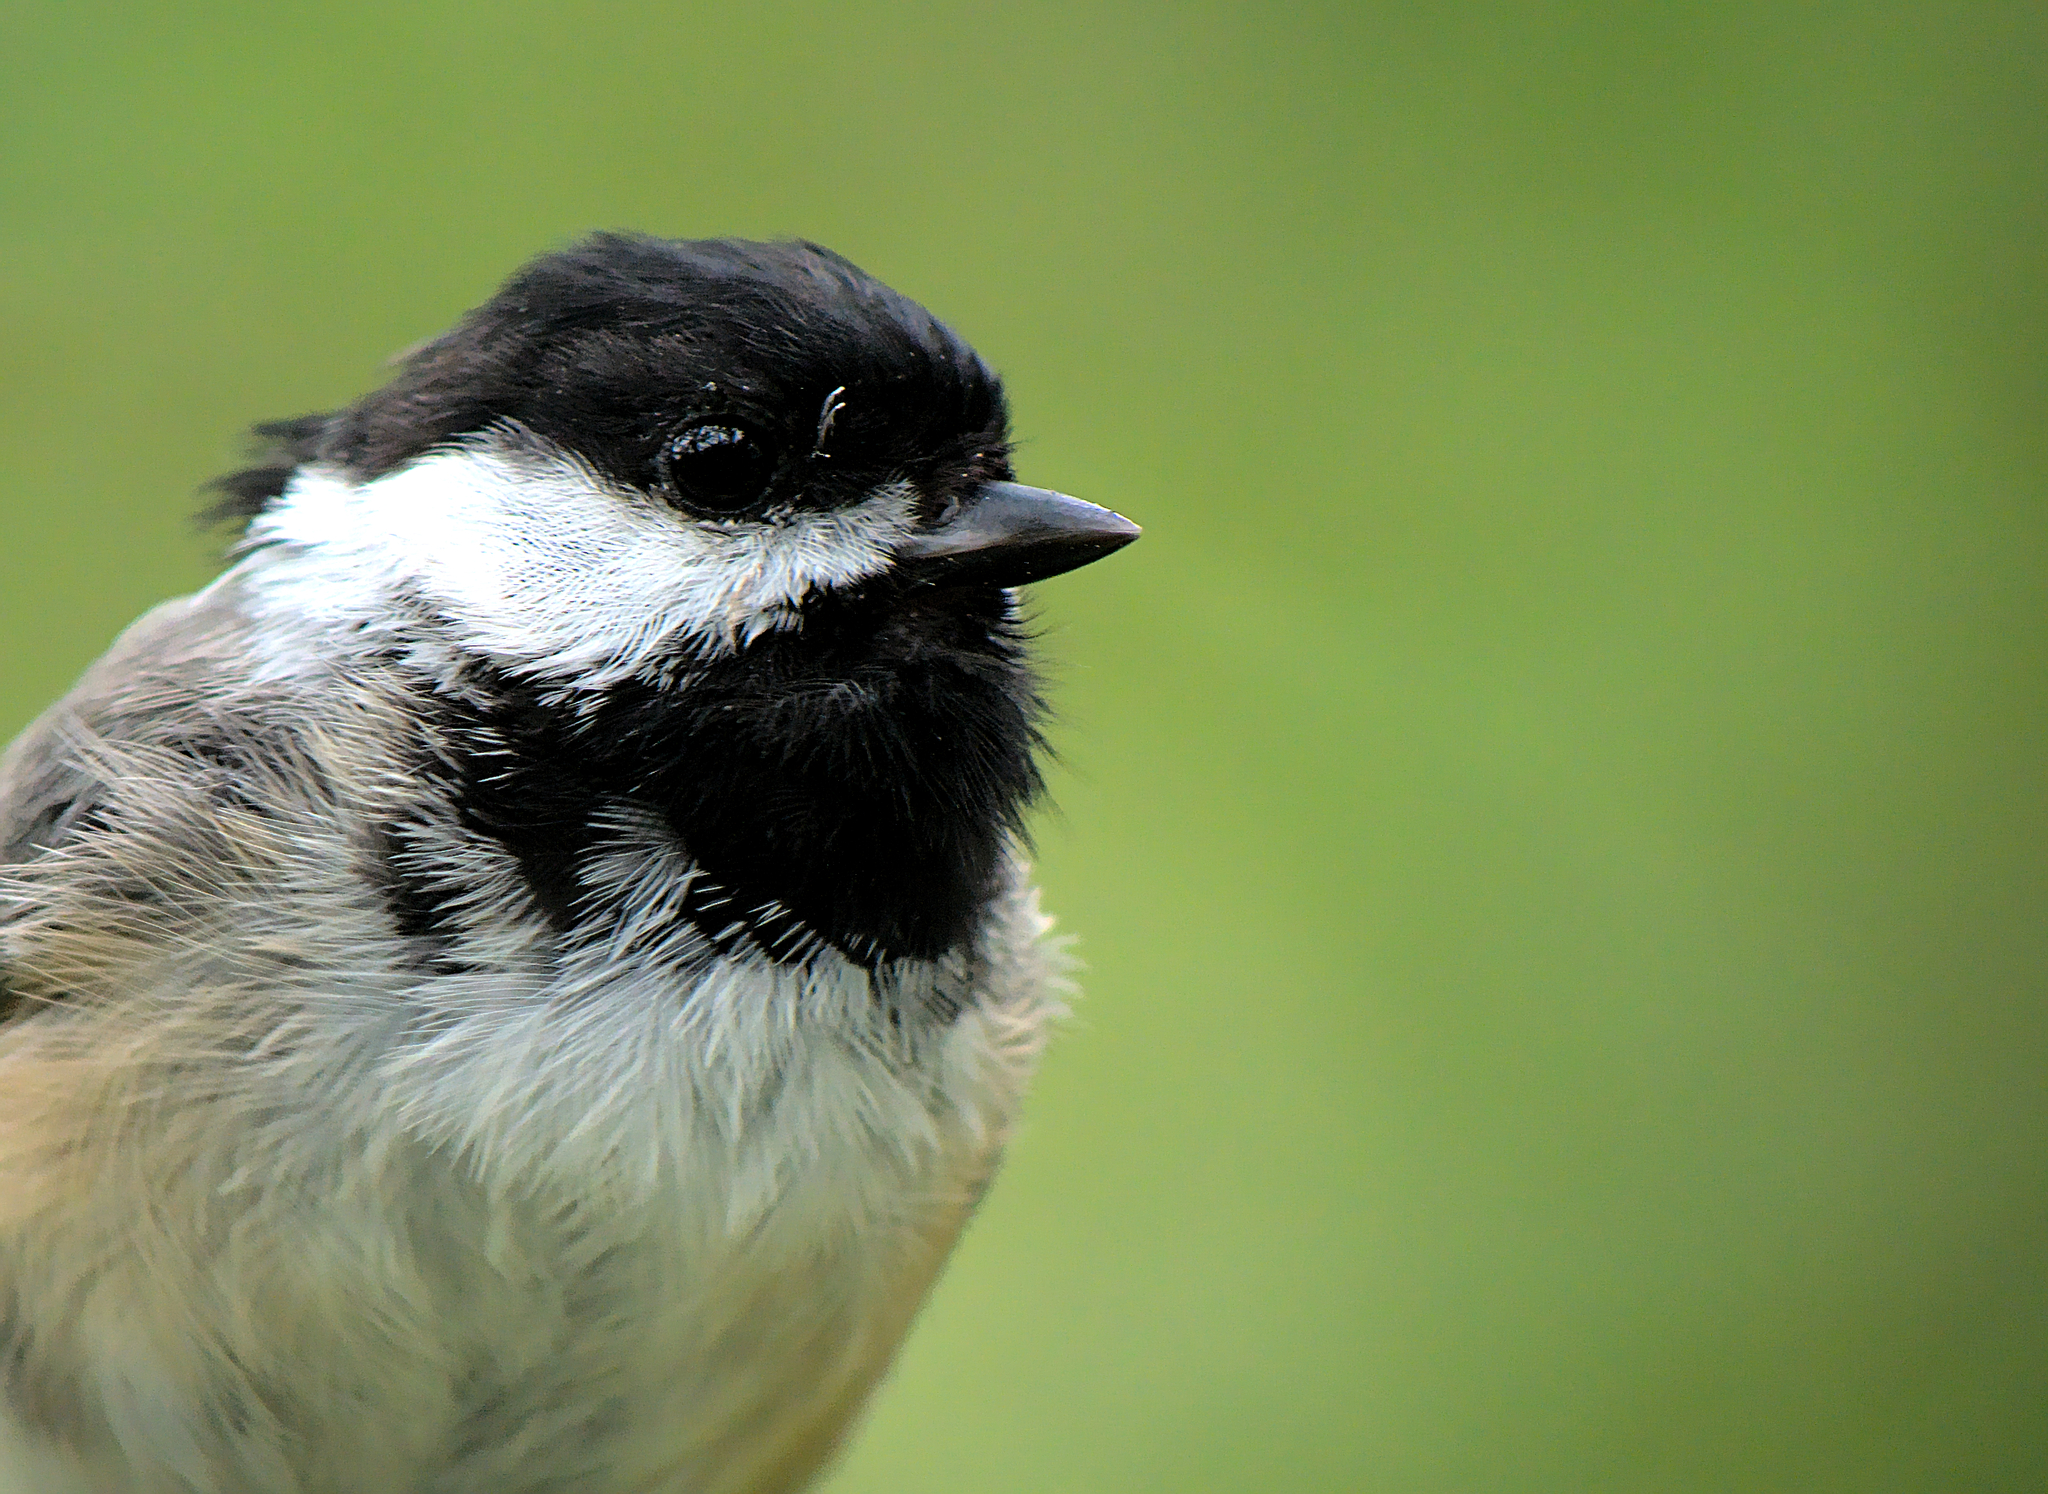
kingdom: Animalia
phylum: Chordata
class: Aves
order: Passeriformes
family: Paridae
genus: Poecile
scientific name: Poecile atricapillus
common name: Black-capped chickadee
